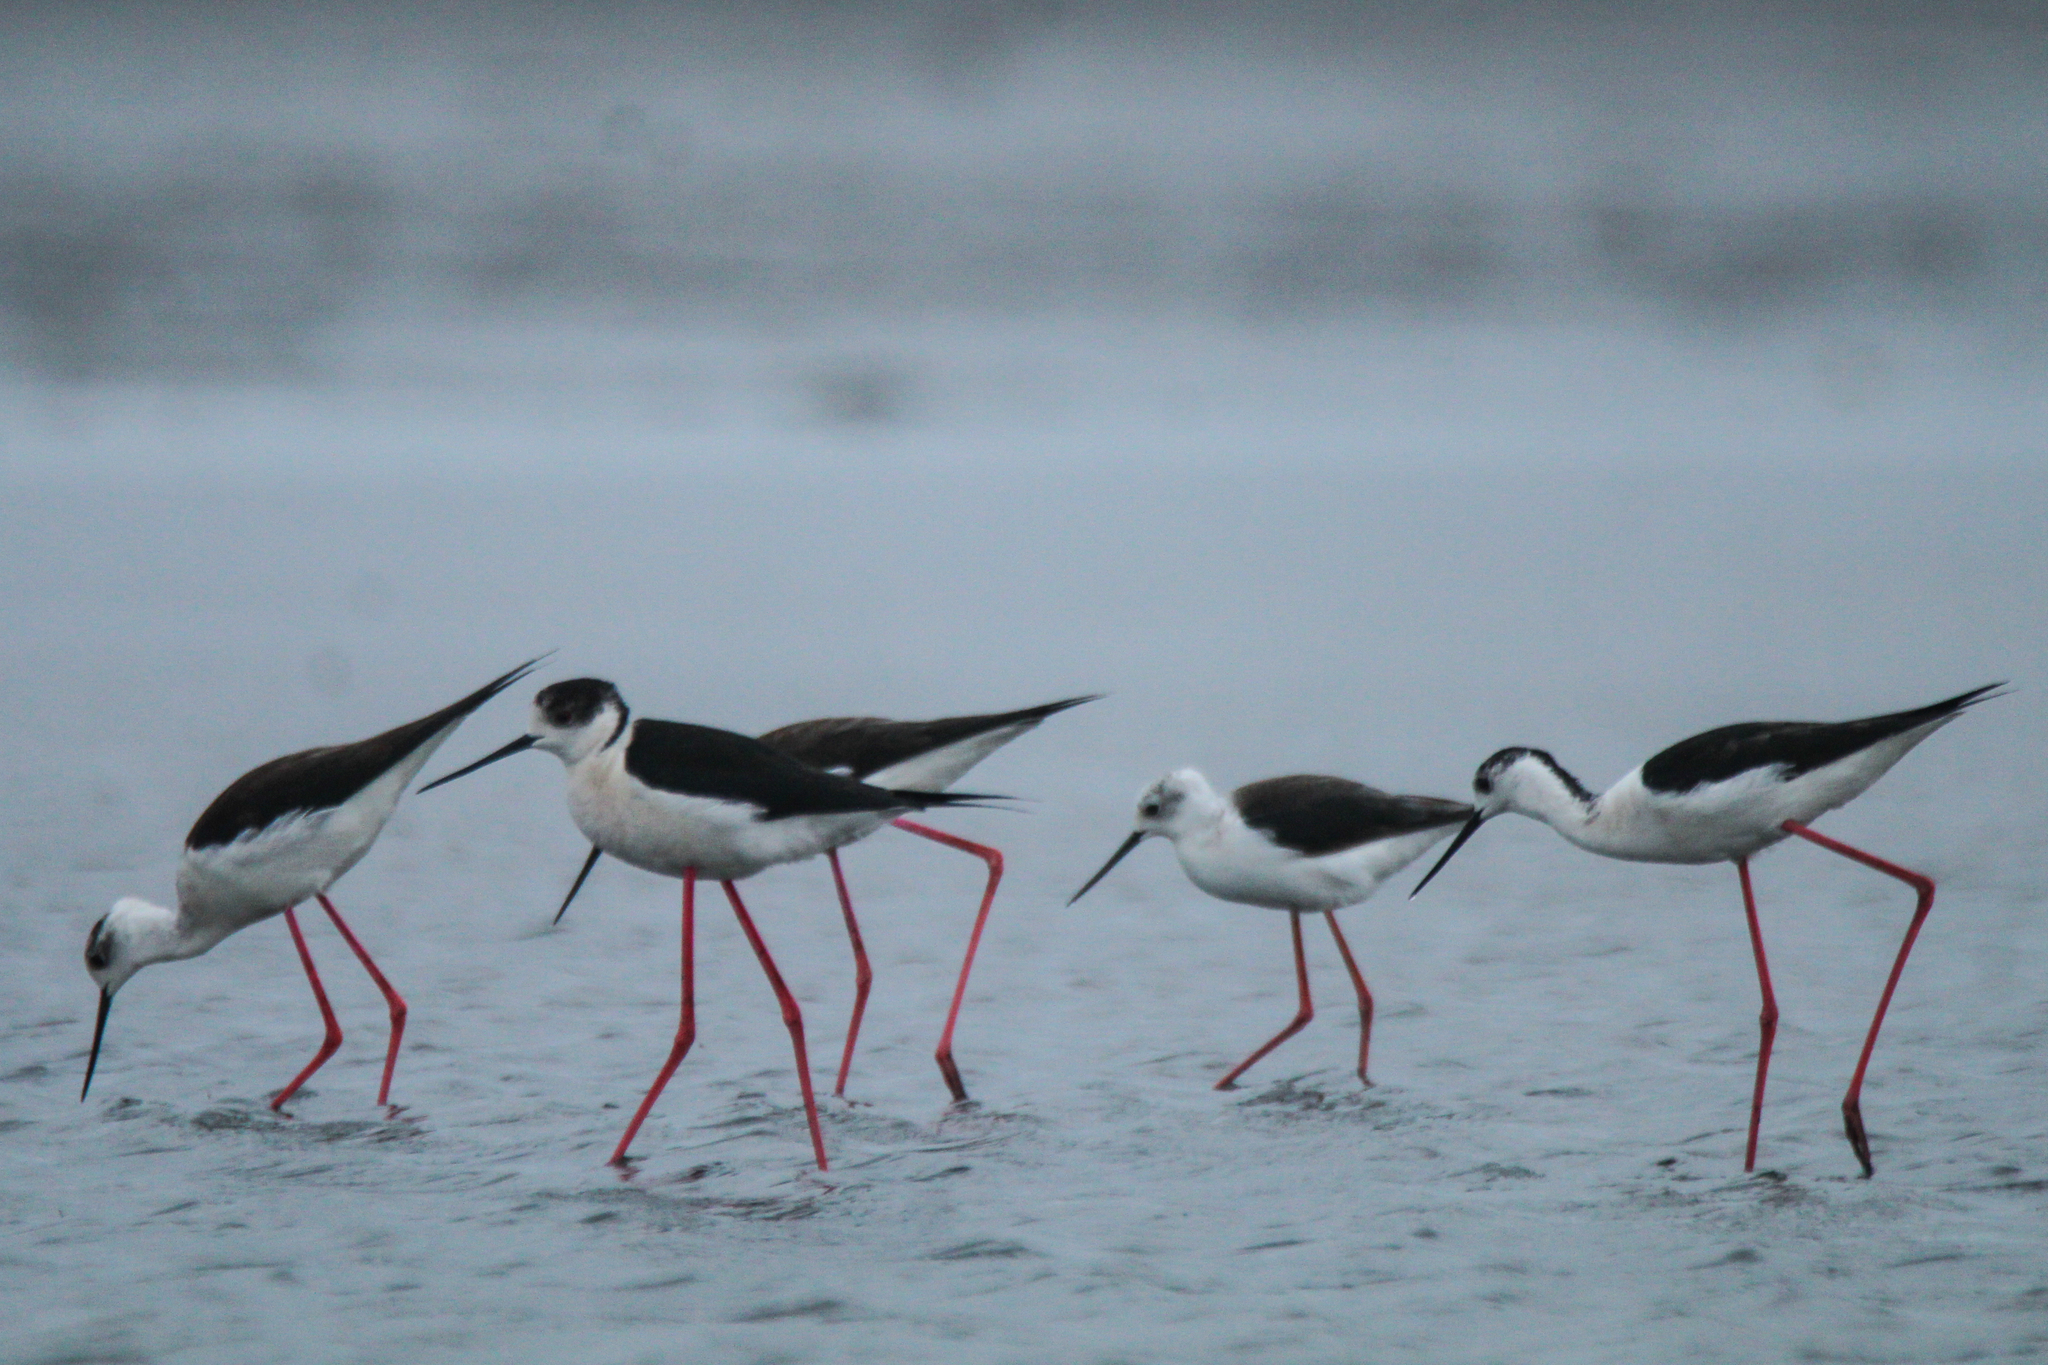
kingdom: Animalia
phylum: Chordata
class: Aves
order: Charadriiformes
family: Recurvirostridae
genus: Himantopus
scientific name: Himantopus himantopus
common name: Black-winged stilt
